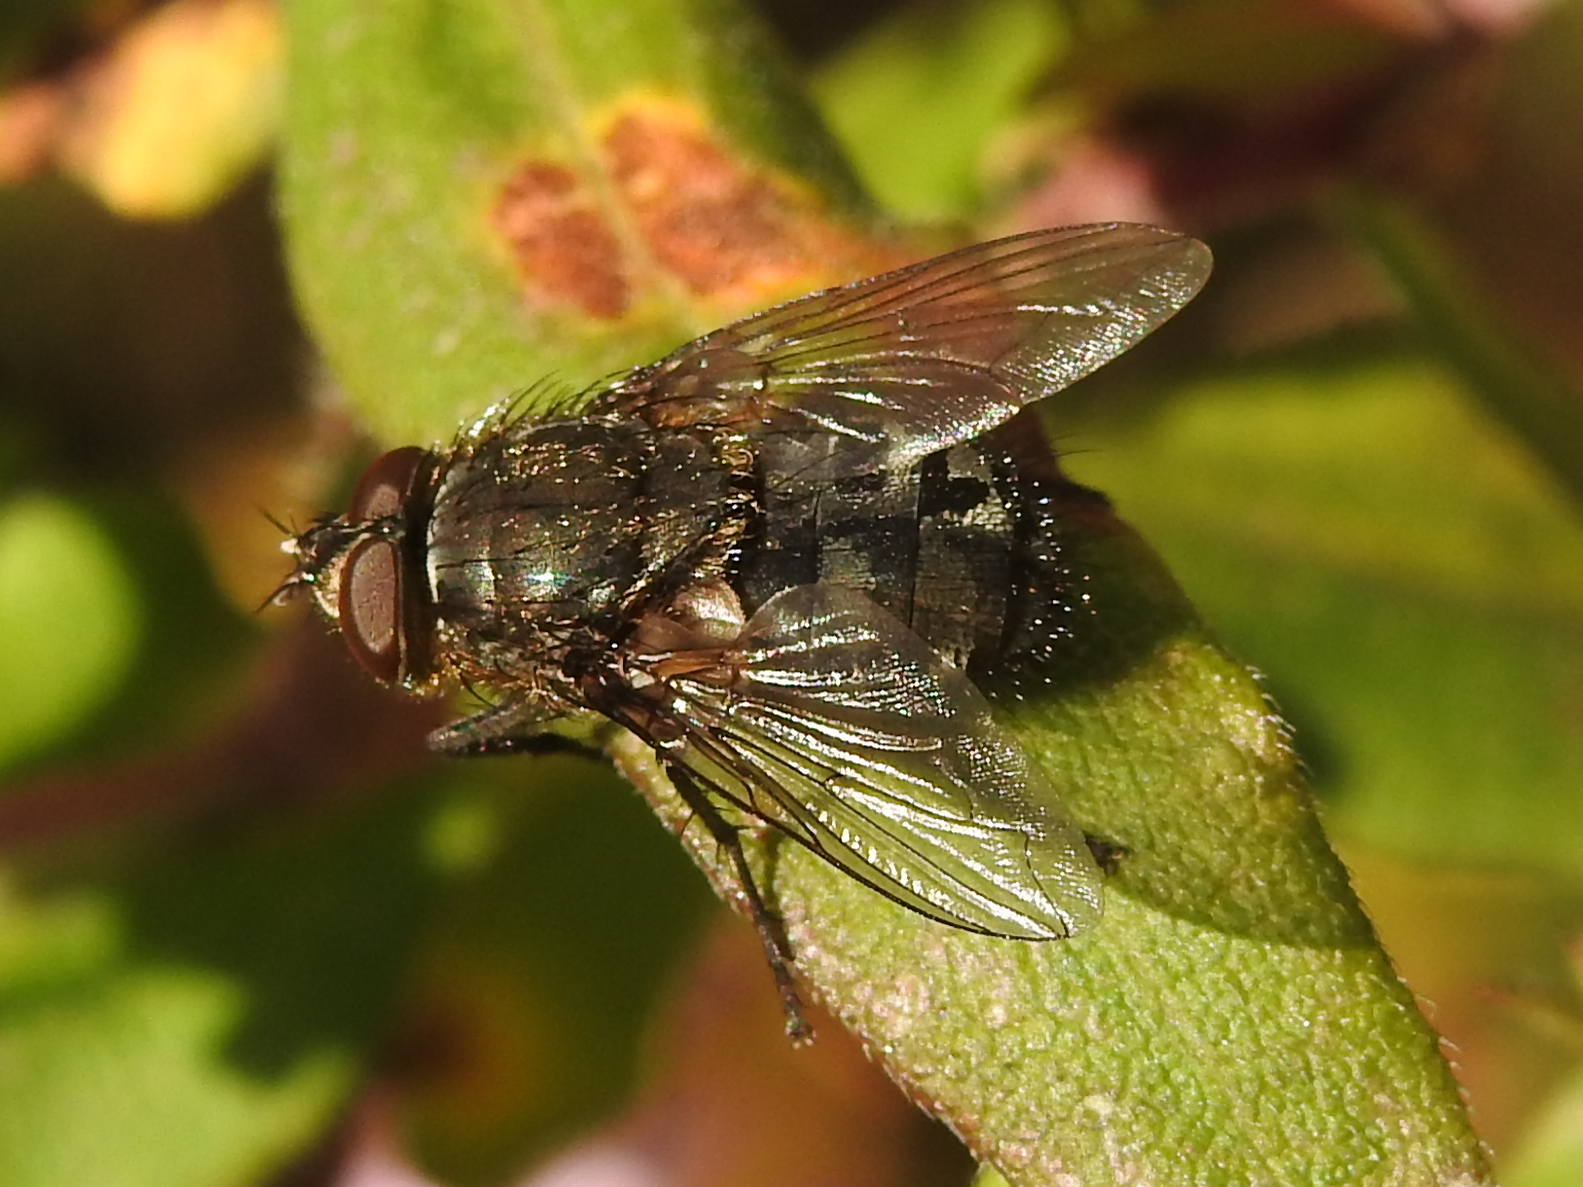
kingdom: Animalia
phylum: Arthropoda
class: Insecta
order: Diptera
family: Polleniidae
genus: Pollenia
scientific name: Pollenia
